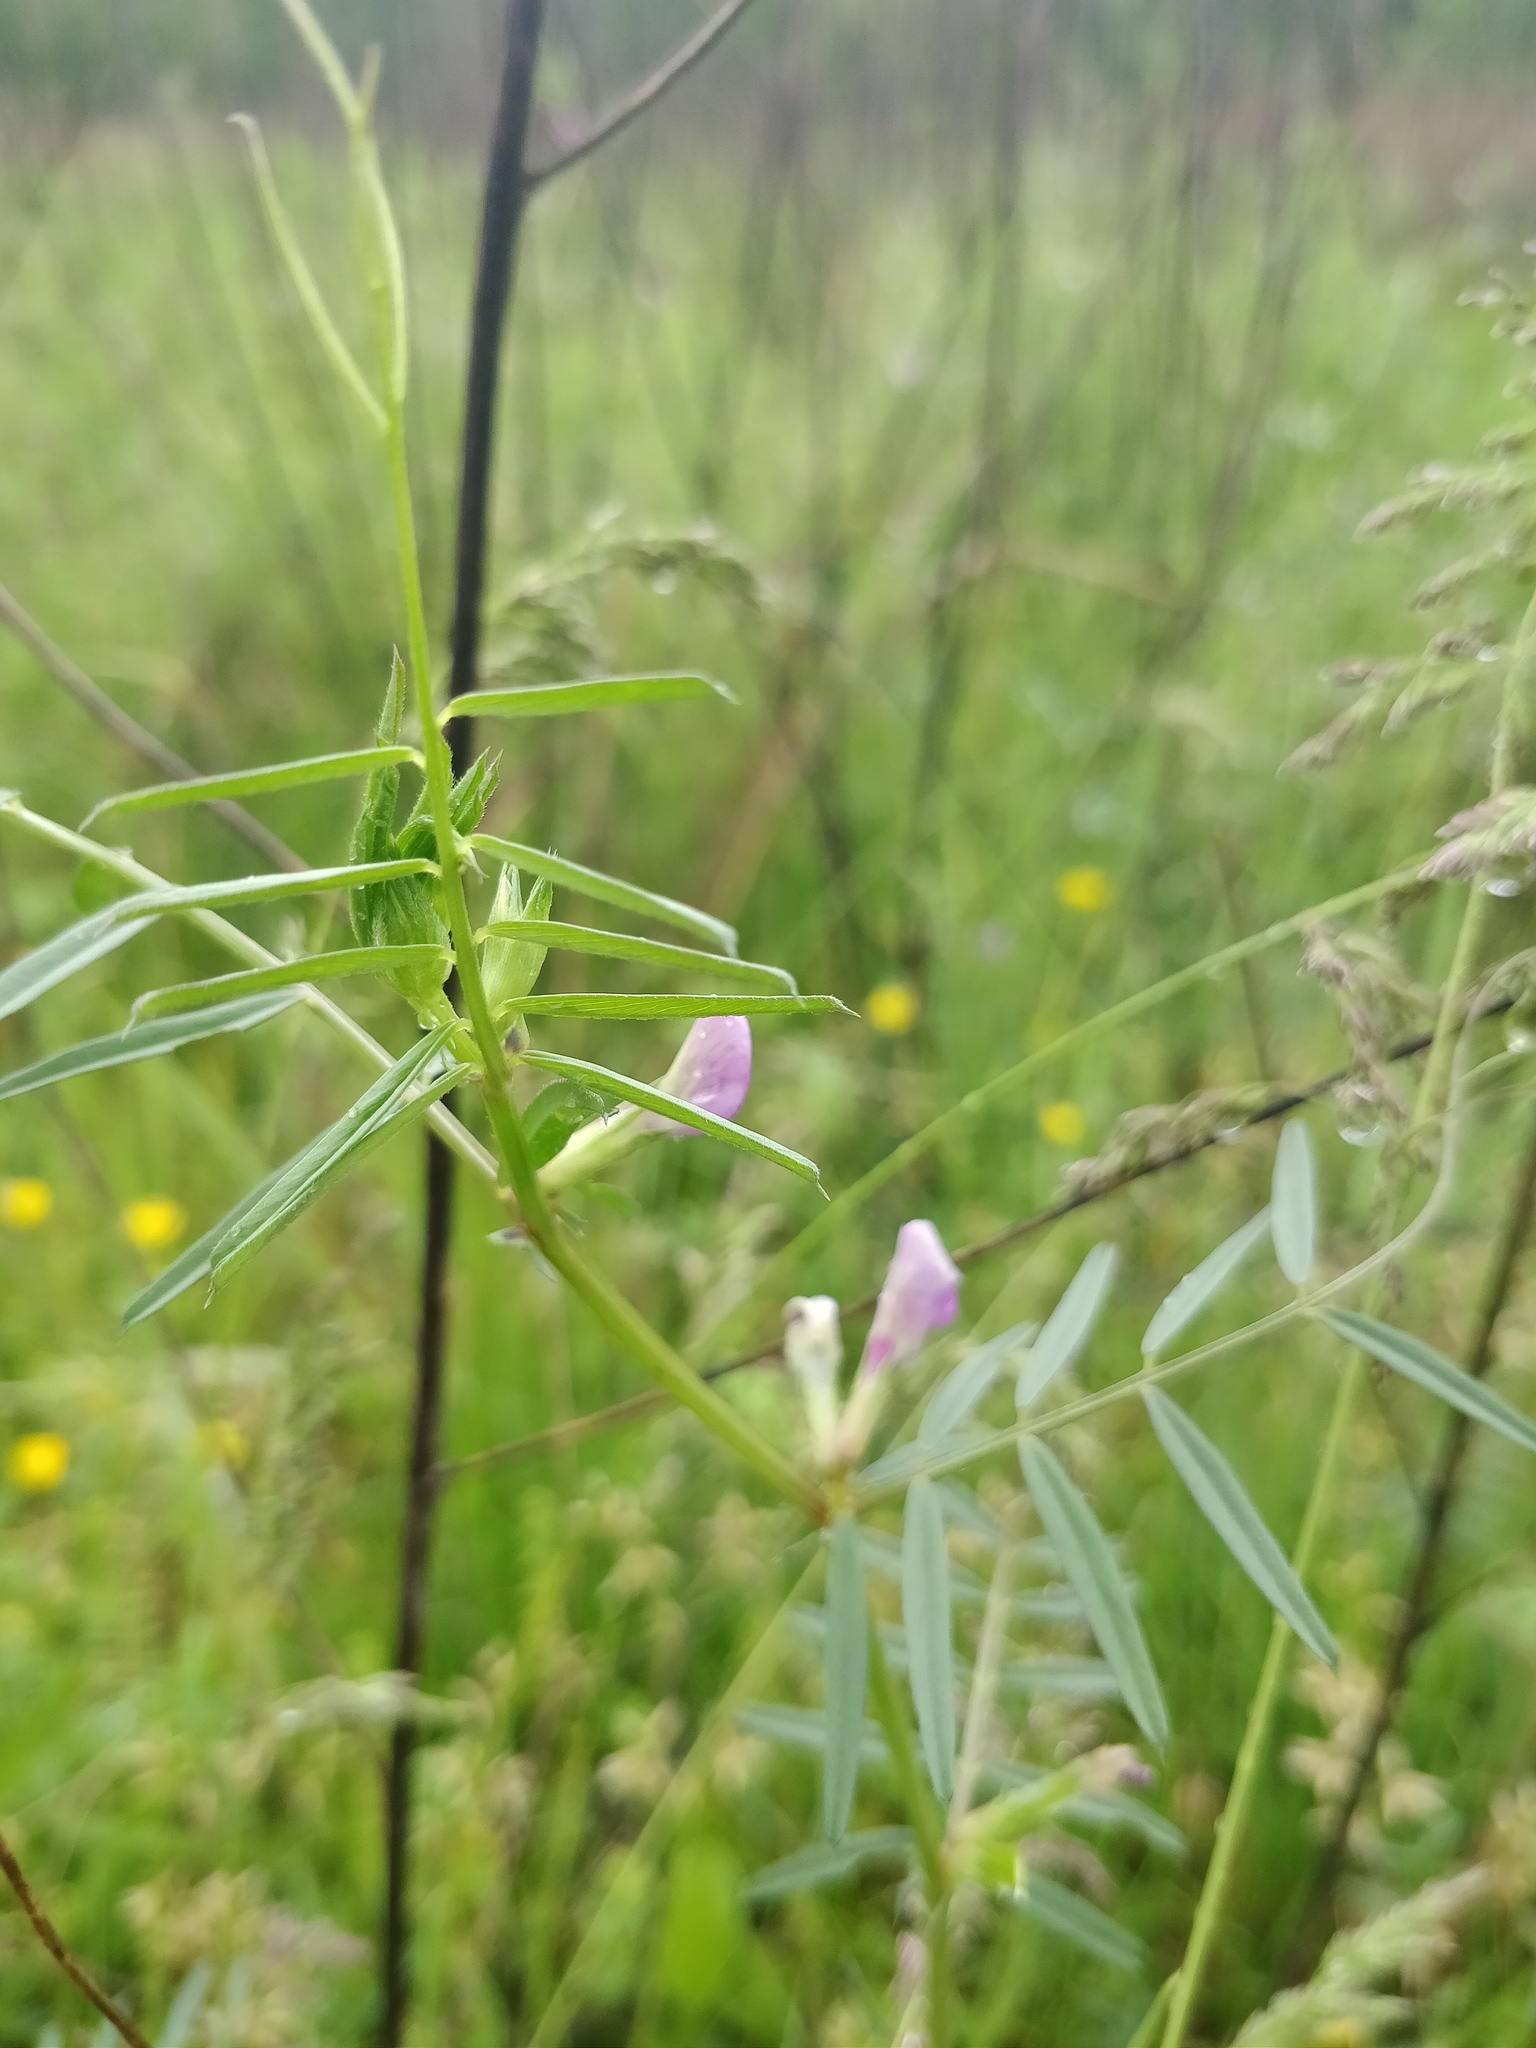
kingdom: Plantae
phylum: Tracheophyta
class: Magnoliopsida
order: Fabales
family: Fabaceae
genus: Vicia
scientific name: Vicia sativa
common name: Garden vetch
